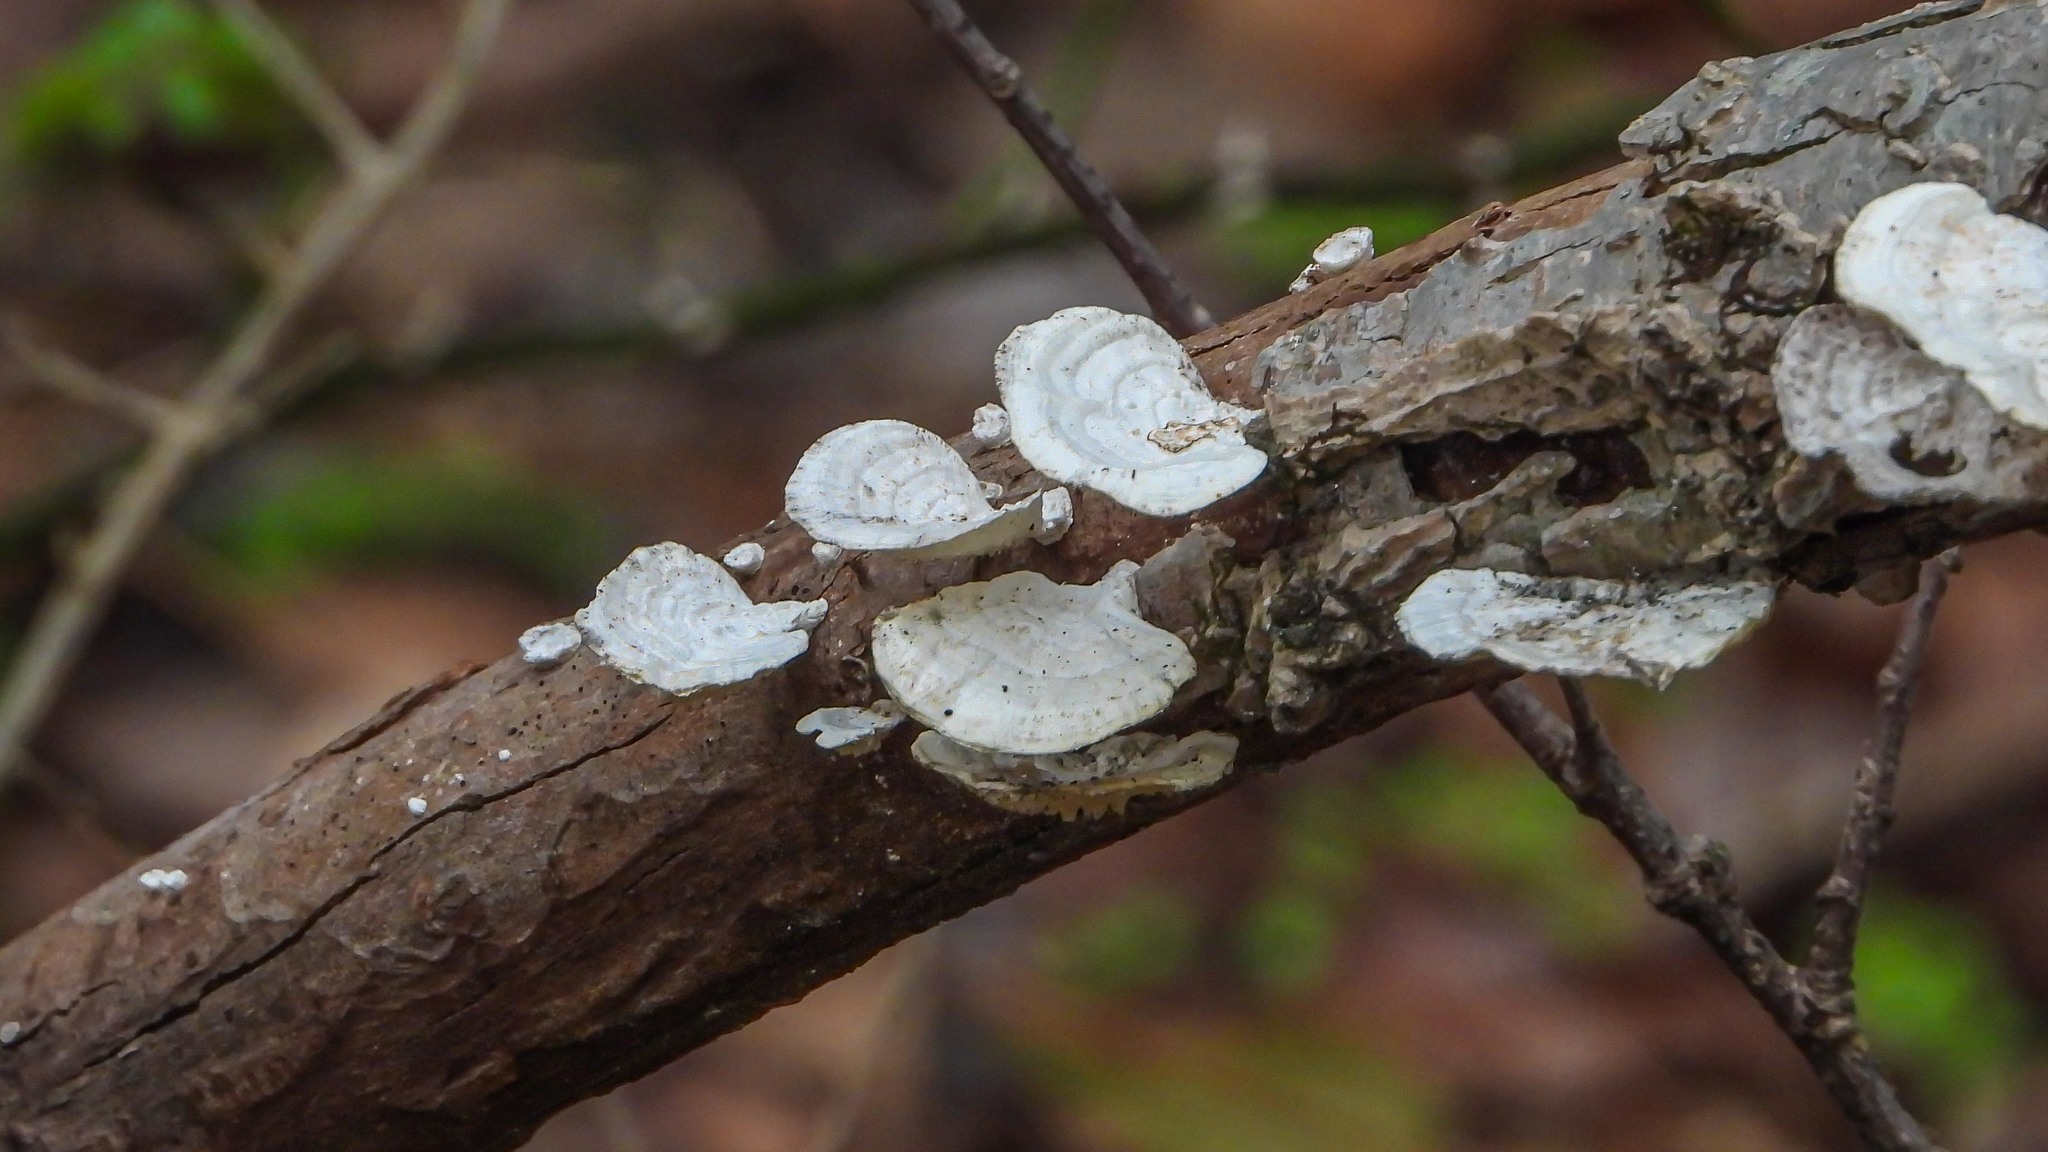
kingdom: Fungi
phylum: Basidiomycota
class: Agaricomycetes
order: Polyporales
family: Polyporaceae
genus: Poronidulus
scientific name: Poronidulus conchifer
